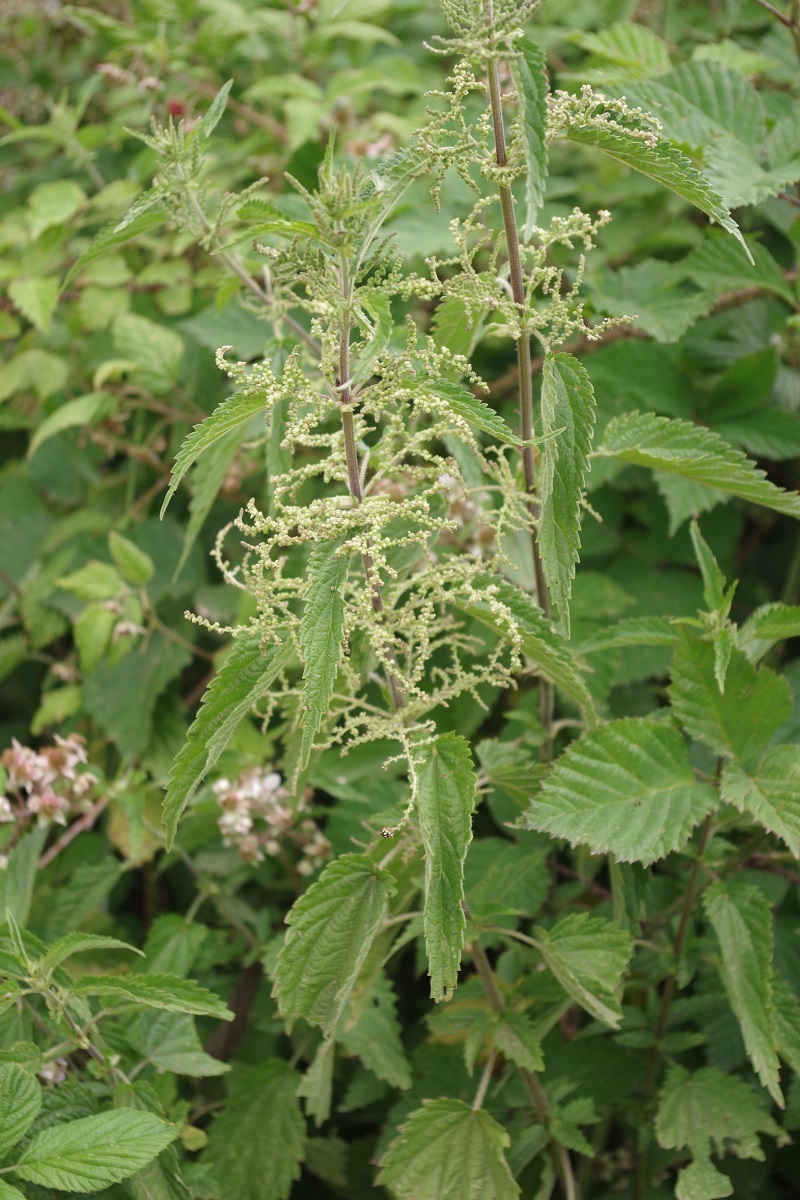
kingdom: Plantae
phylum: Tracheophyta
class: Magnoliopsida
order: Rosales
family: Urticaceae
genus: Urtica
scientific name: Urtica dioica
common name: Common nettle
